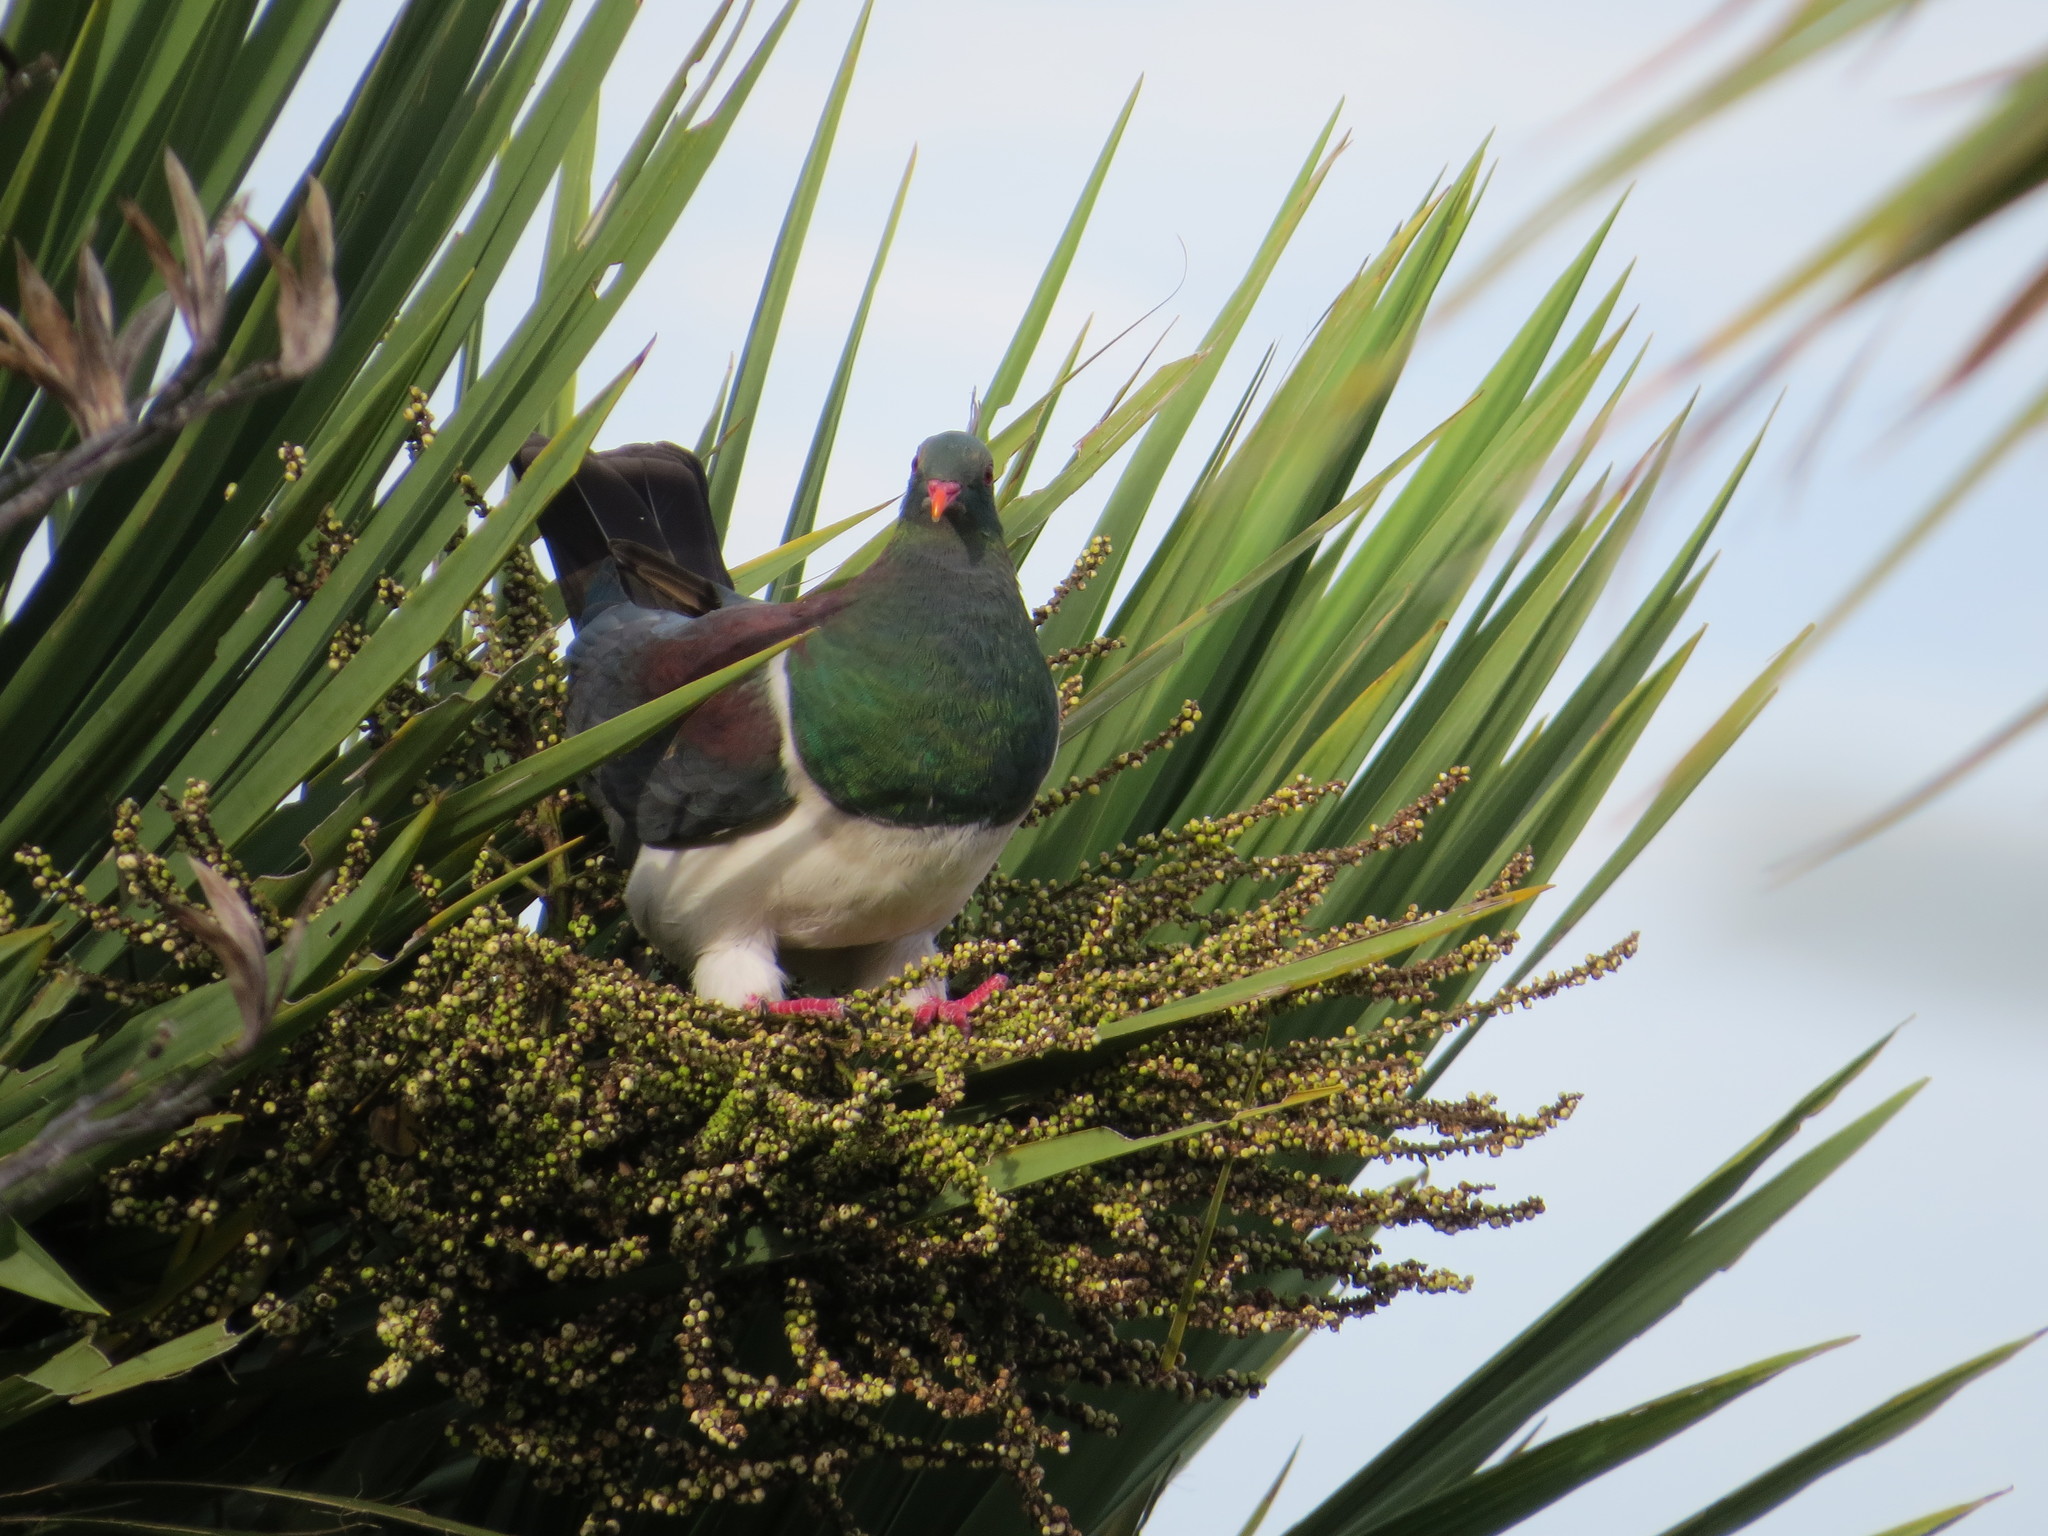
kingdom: Animalia
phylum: Chordata
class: Aves
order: Columbiformes
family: Columbidae
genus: Hemiphaga
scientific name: Hemiphaga novaeseelandiae
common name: New zealand pigeon
